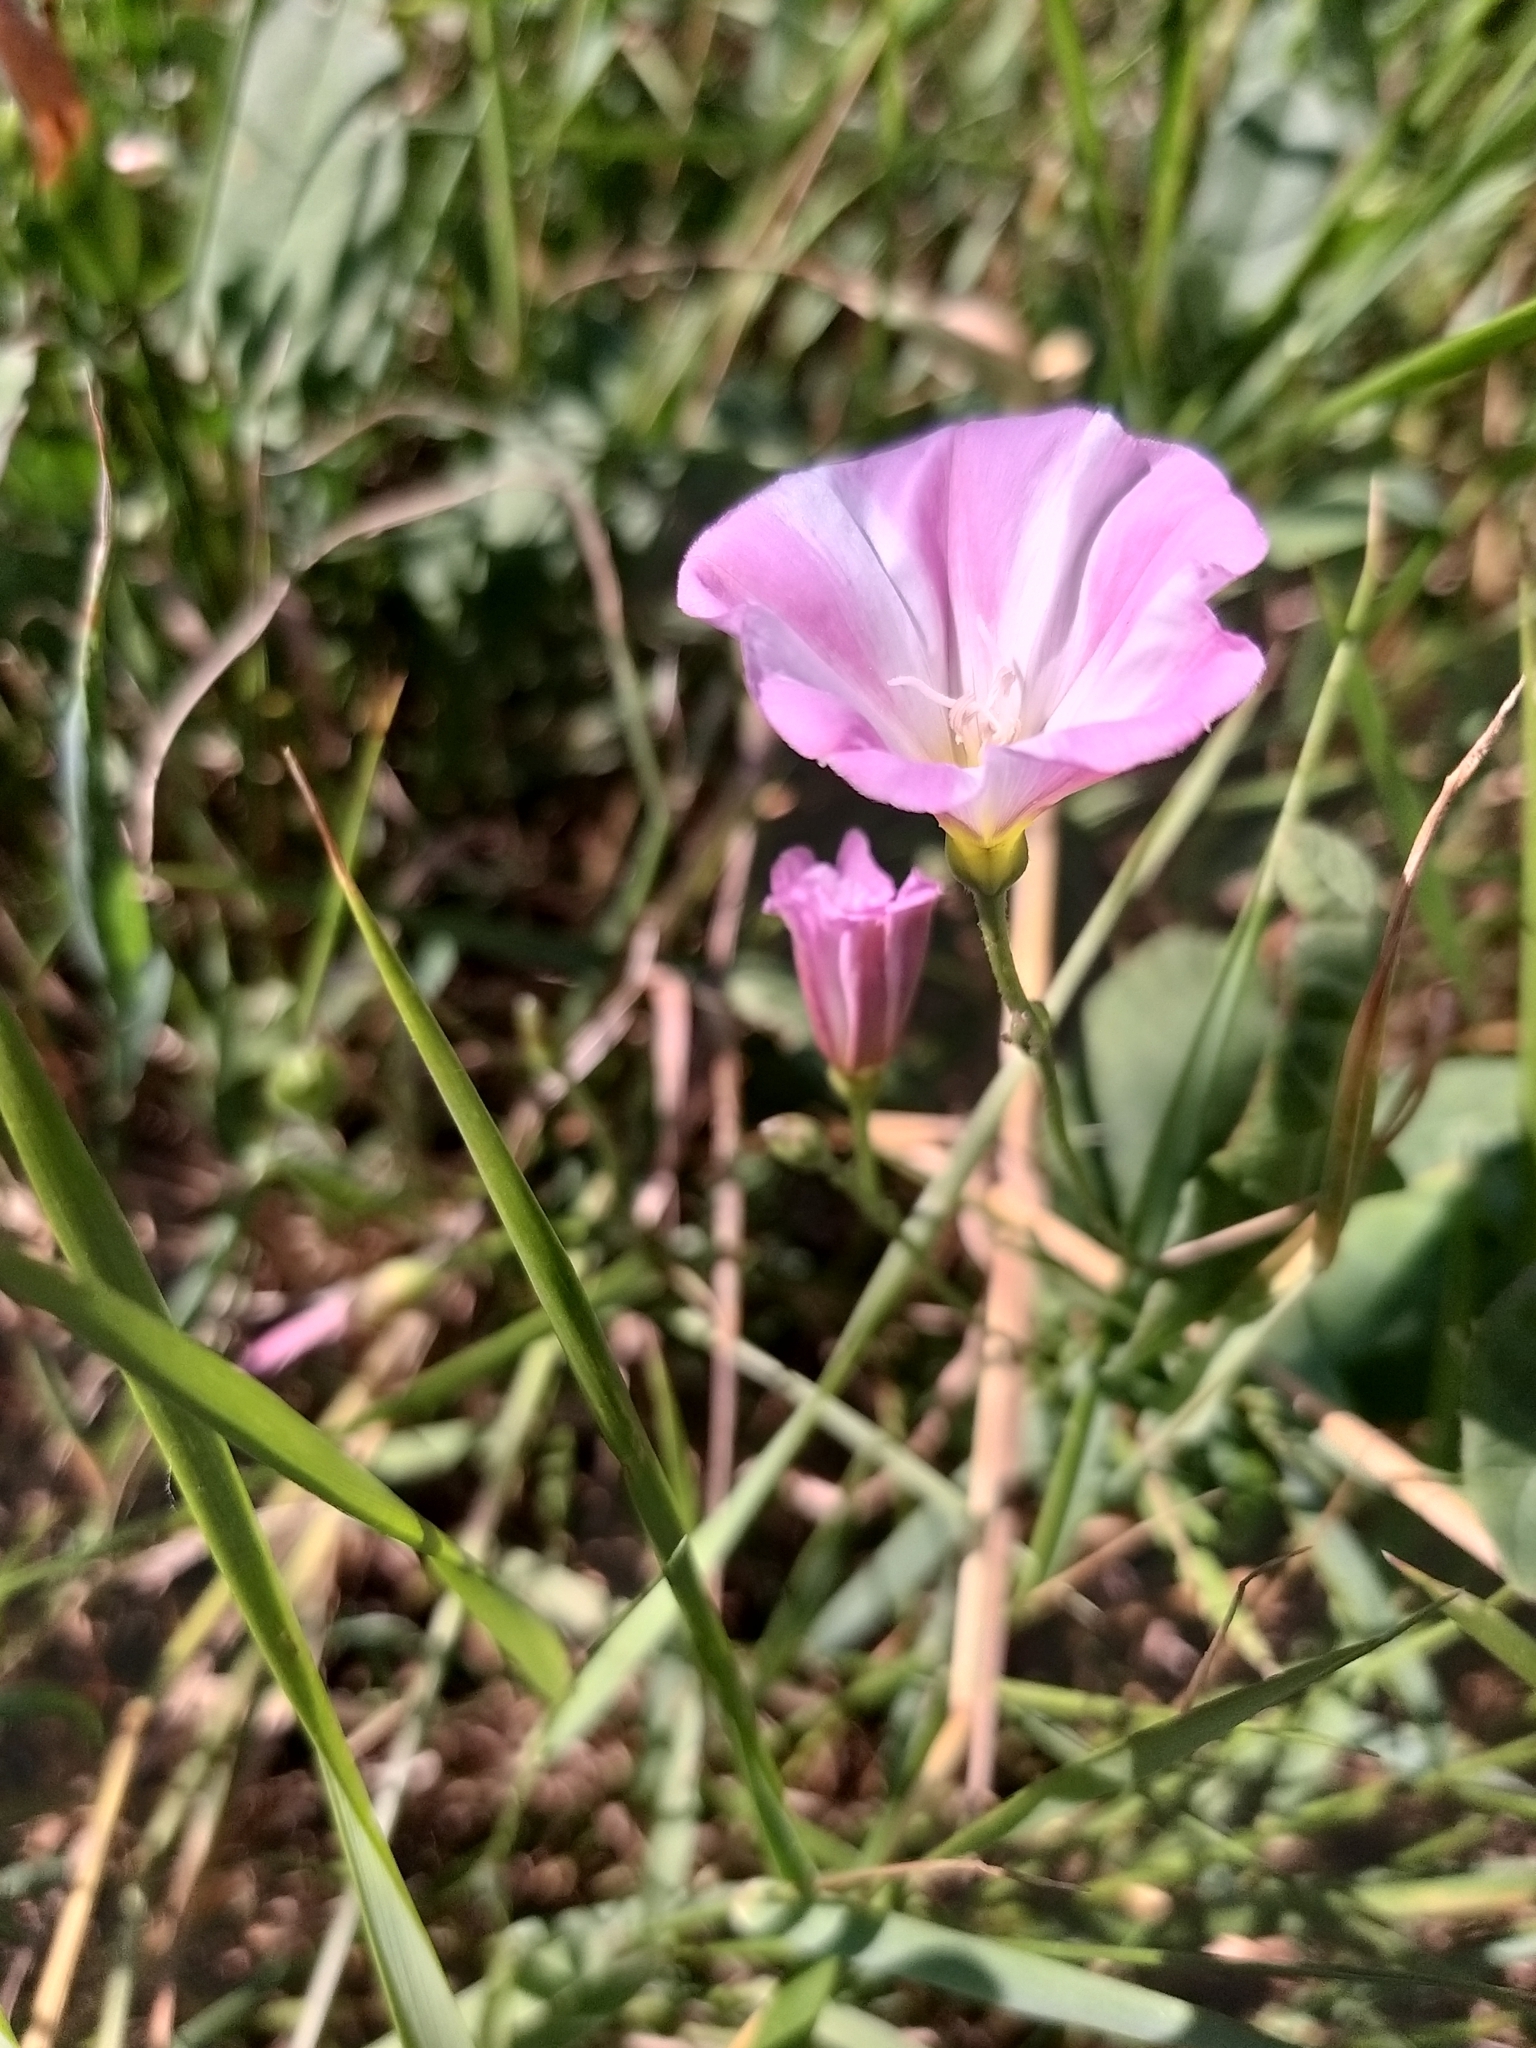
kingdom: Plantae
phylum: Tracheophyta
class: Magnoliopsida
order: Solanales
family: Convolvulaceae
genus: Convolvulus
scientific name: Convolvulus arvensis
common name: Field bindweed
